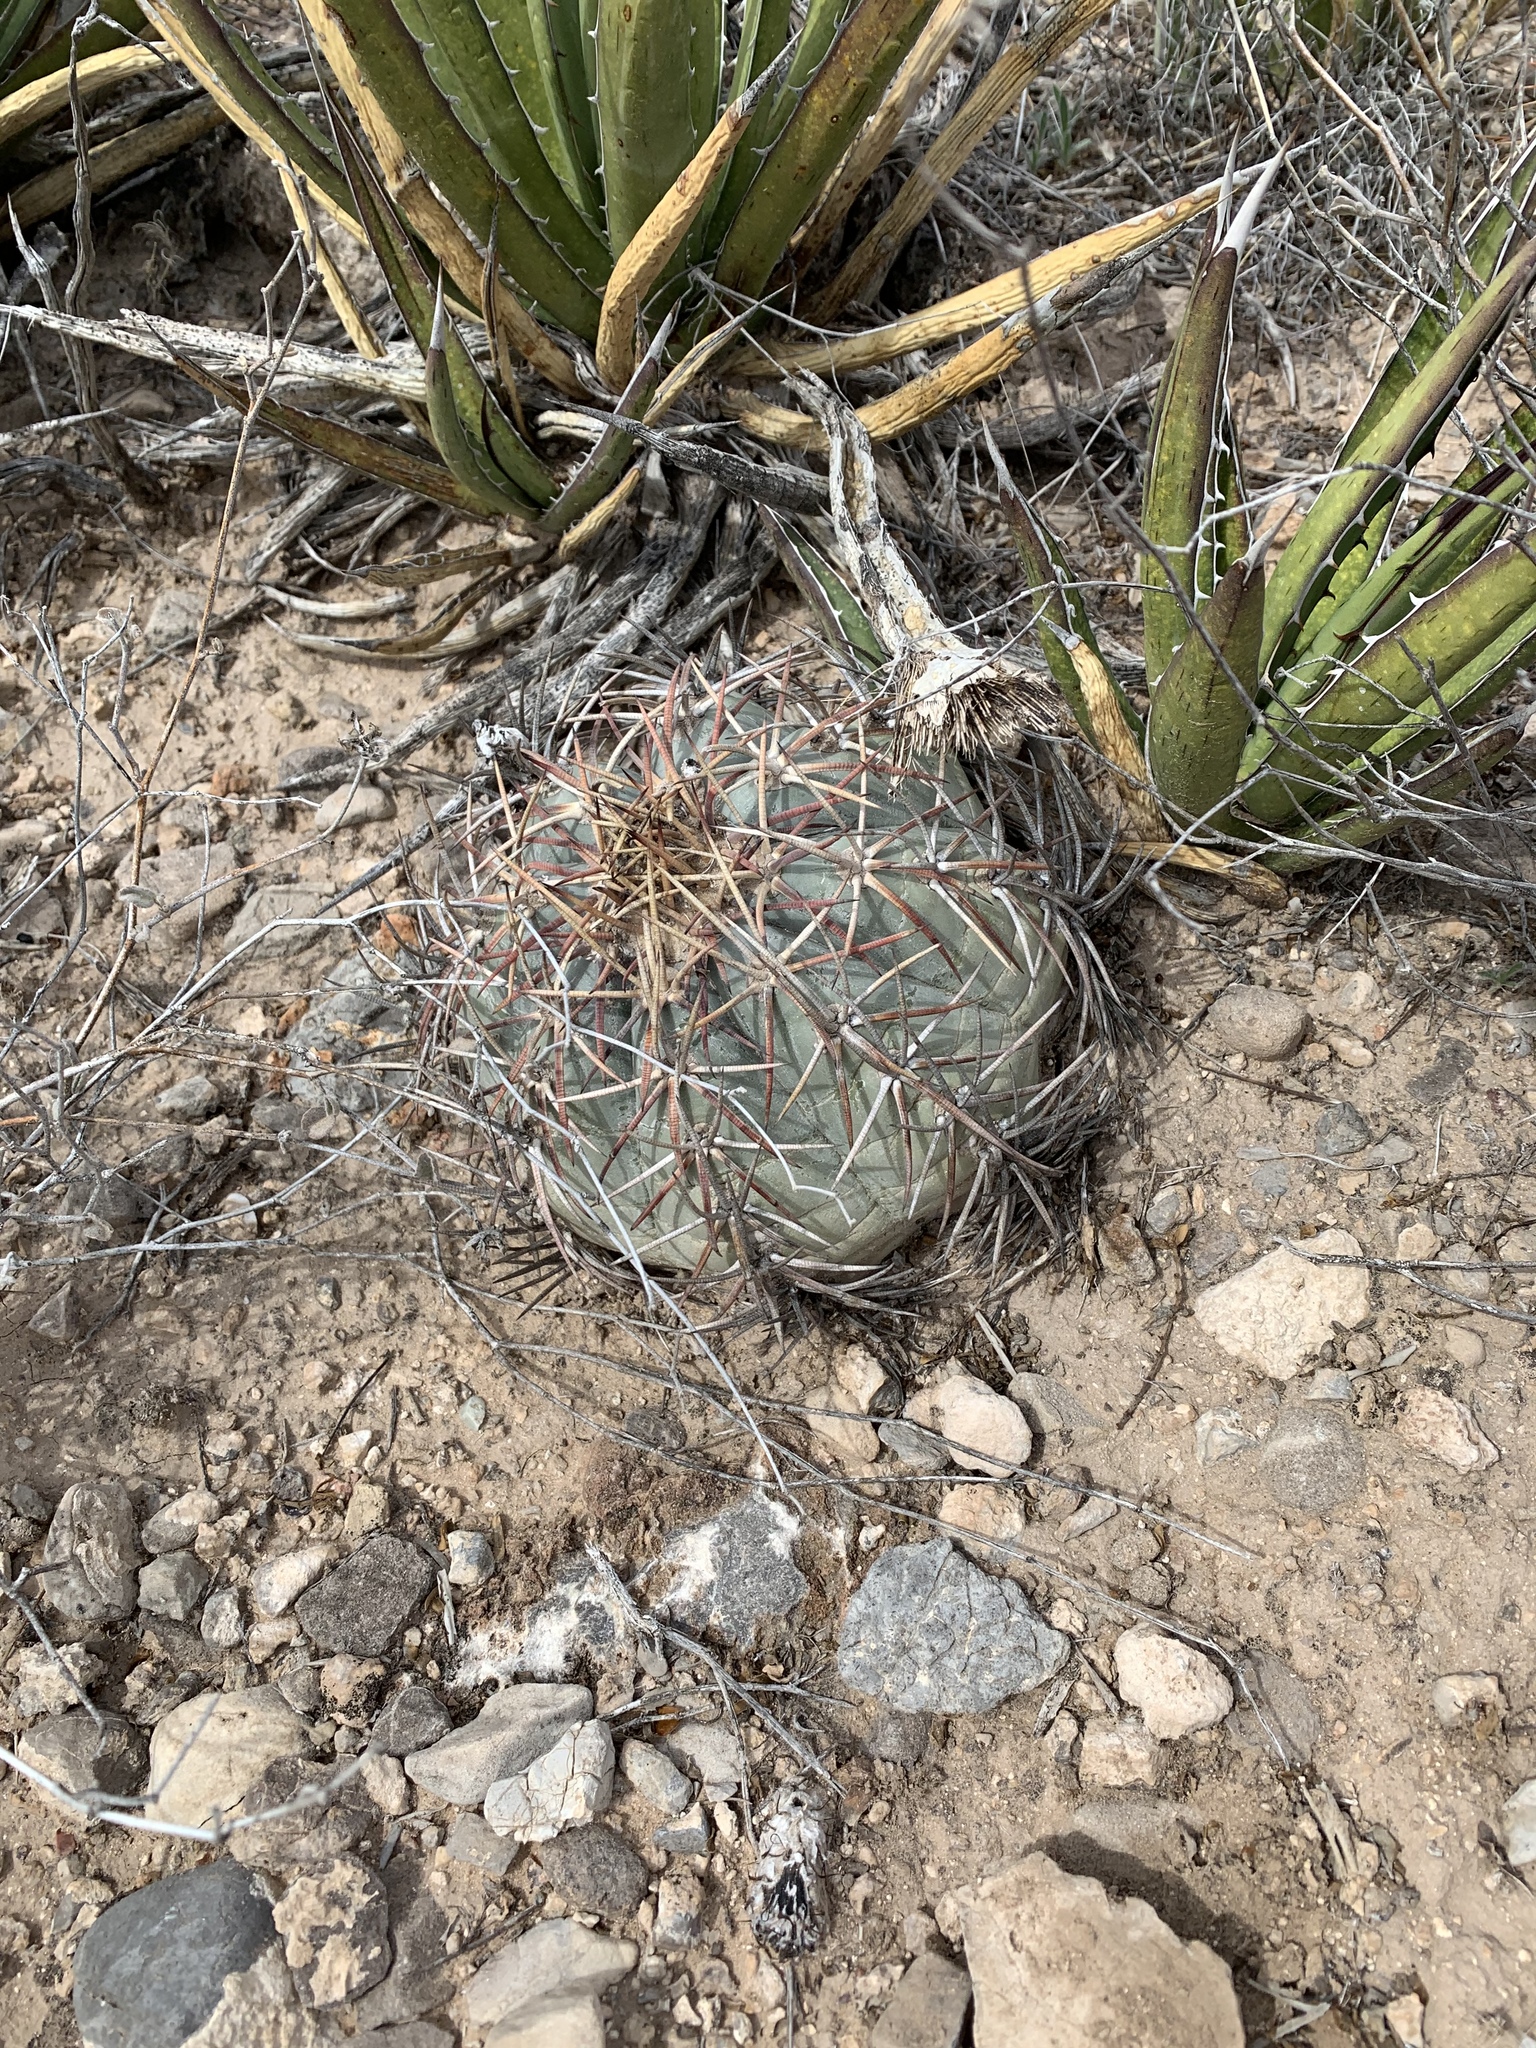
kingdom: Plantae
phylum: Tracheophyta
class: Magnoliopsida
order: Caryophyllales
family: Cactaceae
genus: Echinocactus
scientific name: Echinocactus horizonthalonius
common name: Devilshead
